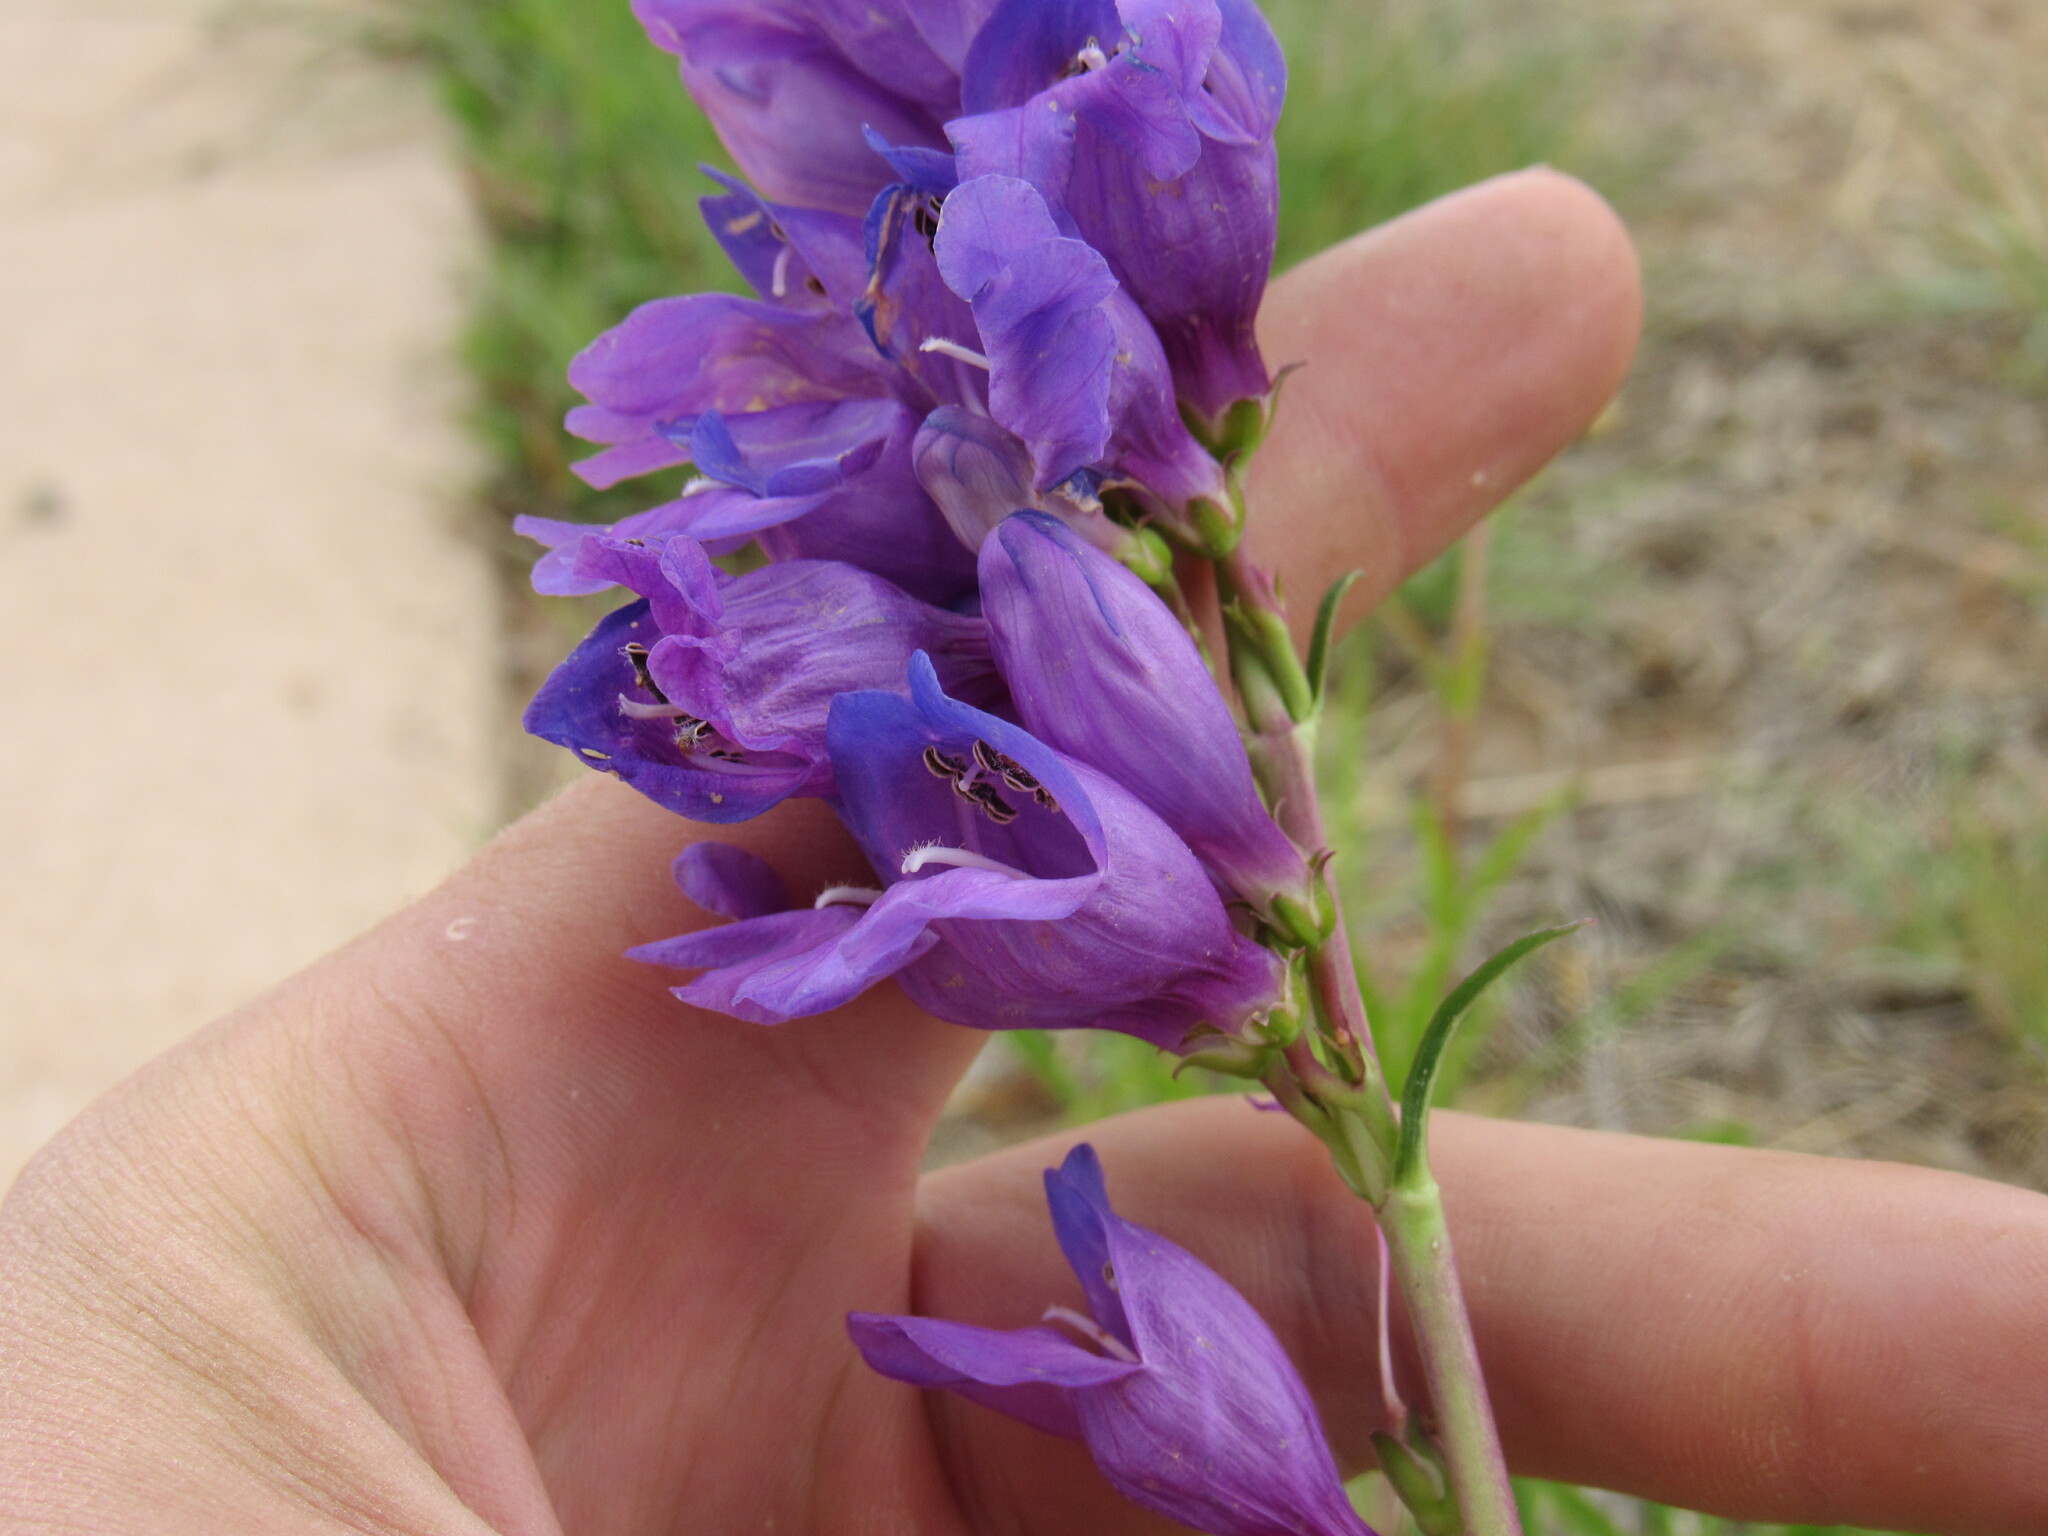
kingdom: Plantae
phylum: Tracheophyta
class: Magnoliopsida
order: Lamiales
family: Plantaginaceae
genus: Penstemon
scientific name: Penstemon strictus
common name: Rocky mountain penstemon
